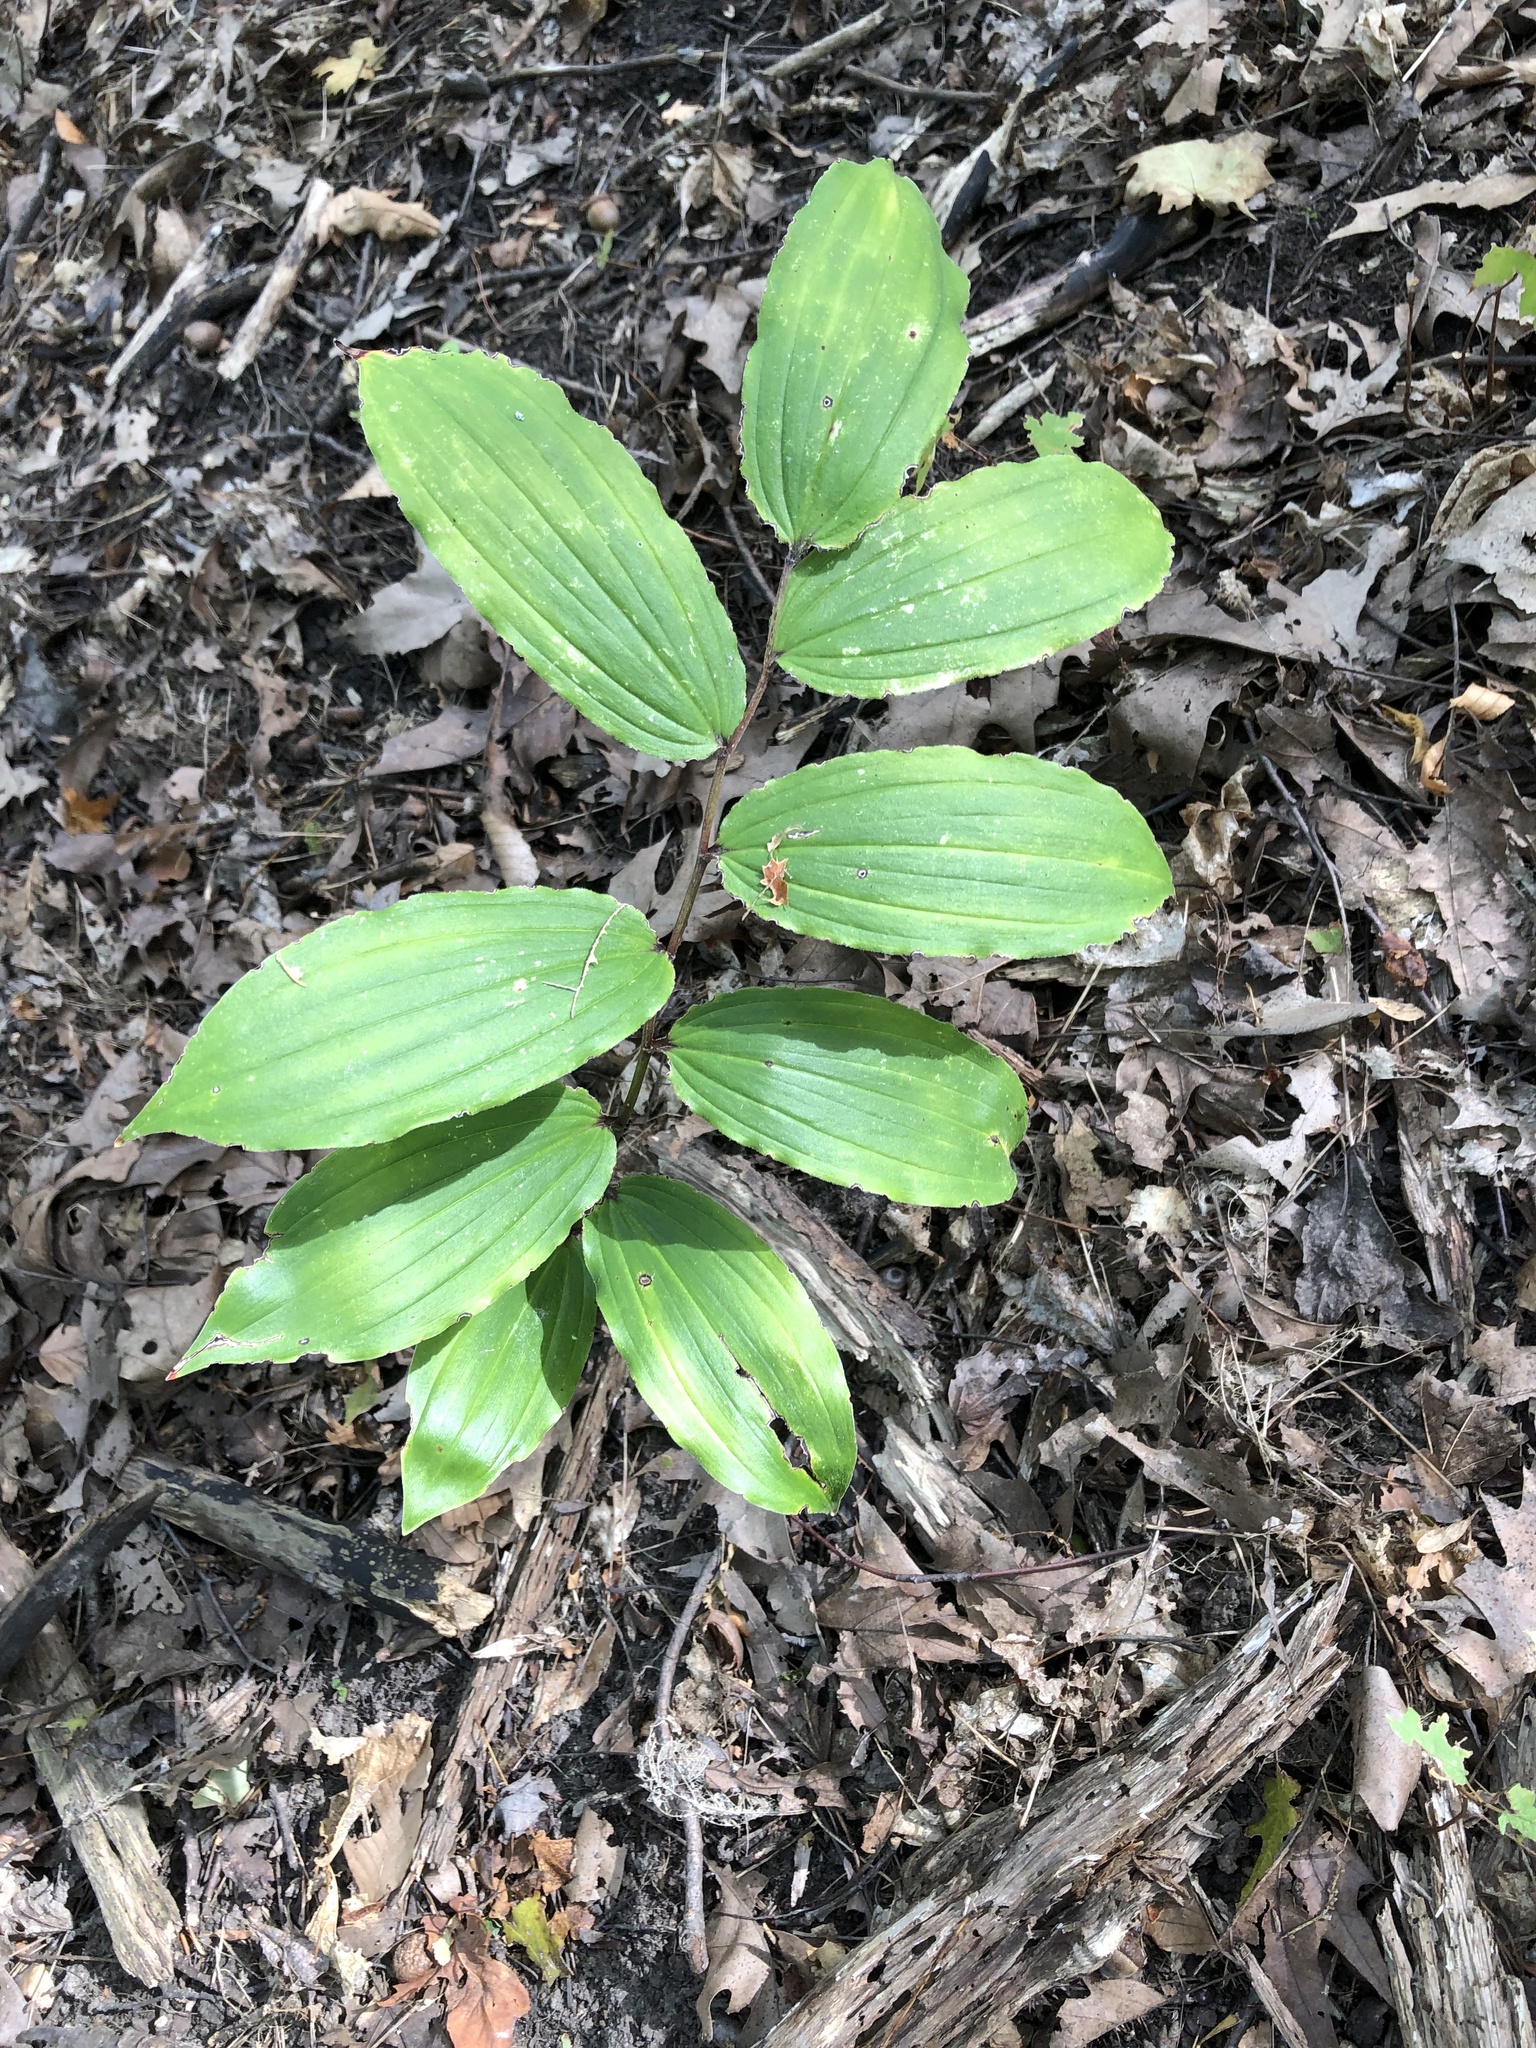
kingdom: Plantae
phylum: Tracheophyta
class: Liliopsida
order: Asparagales
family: Asparagaceae
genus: Maianthemum
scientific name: Maianthemum racemosum
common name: False spikenard
